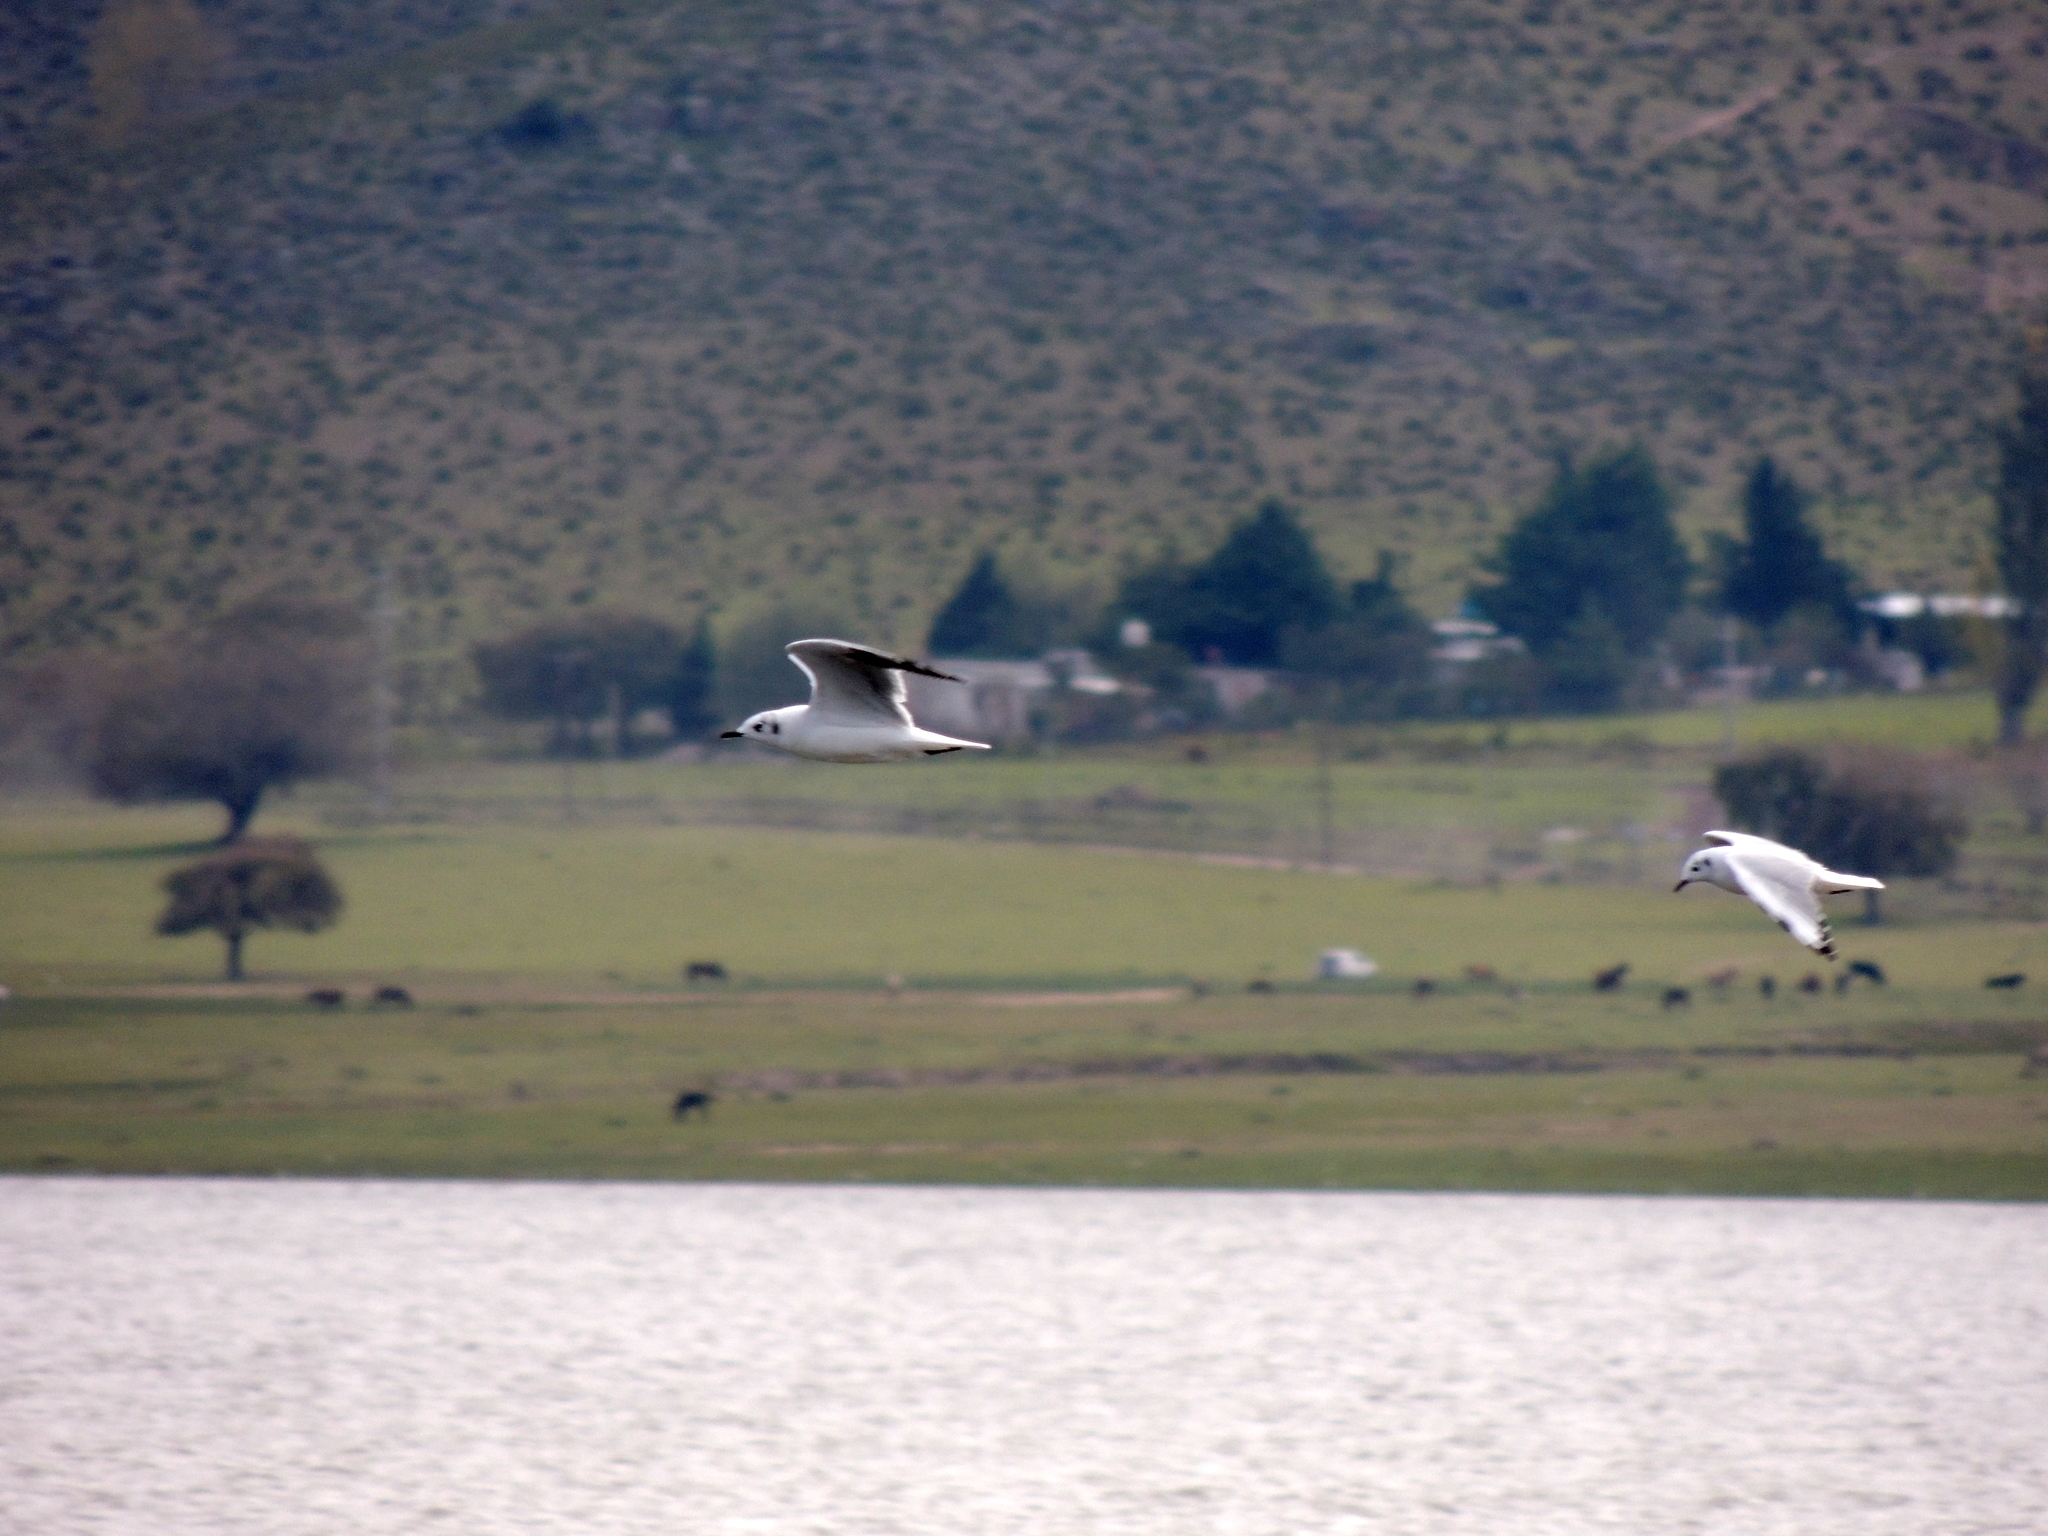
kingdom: Animalia
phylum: Chordata
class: Aves
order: Charadriiformes
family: Laridae
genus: Chroicocephalus
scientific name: Chroicocephalus serranus
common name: Andean gull
